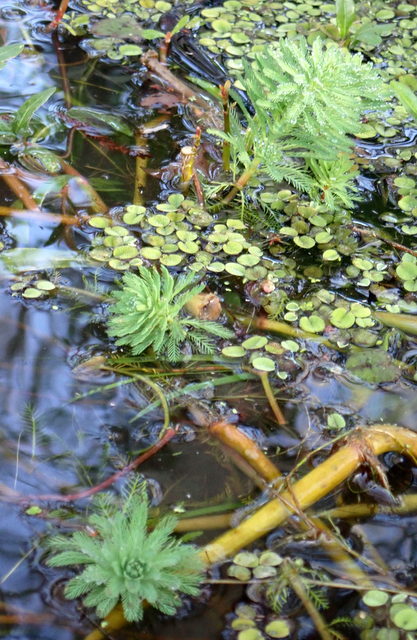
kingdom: Plantae
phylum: Tracheophyta
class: Magnoliopsida
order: Saxifragales
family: Haloragaceae
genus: Myriophyllum
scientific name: Myriophyllum aquaticum
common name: Parrot's feather
